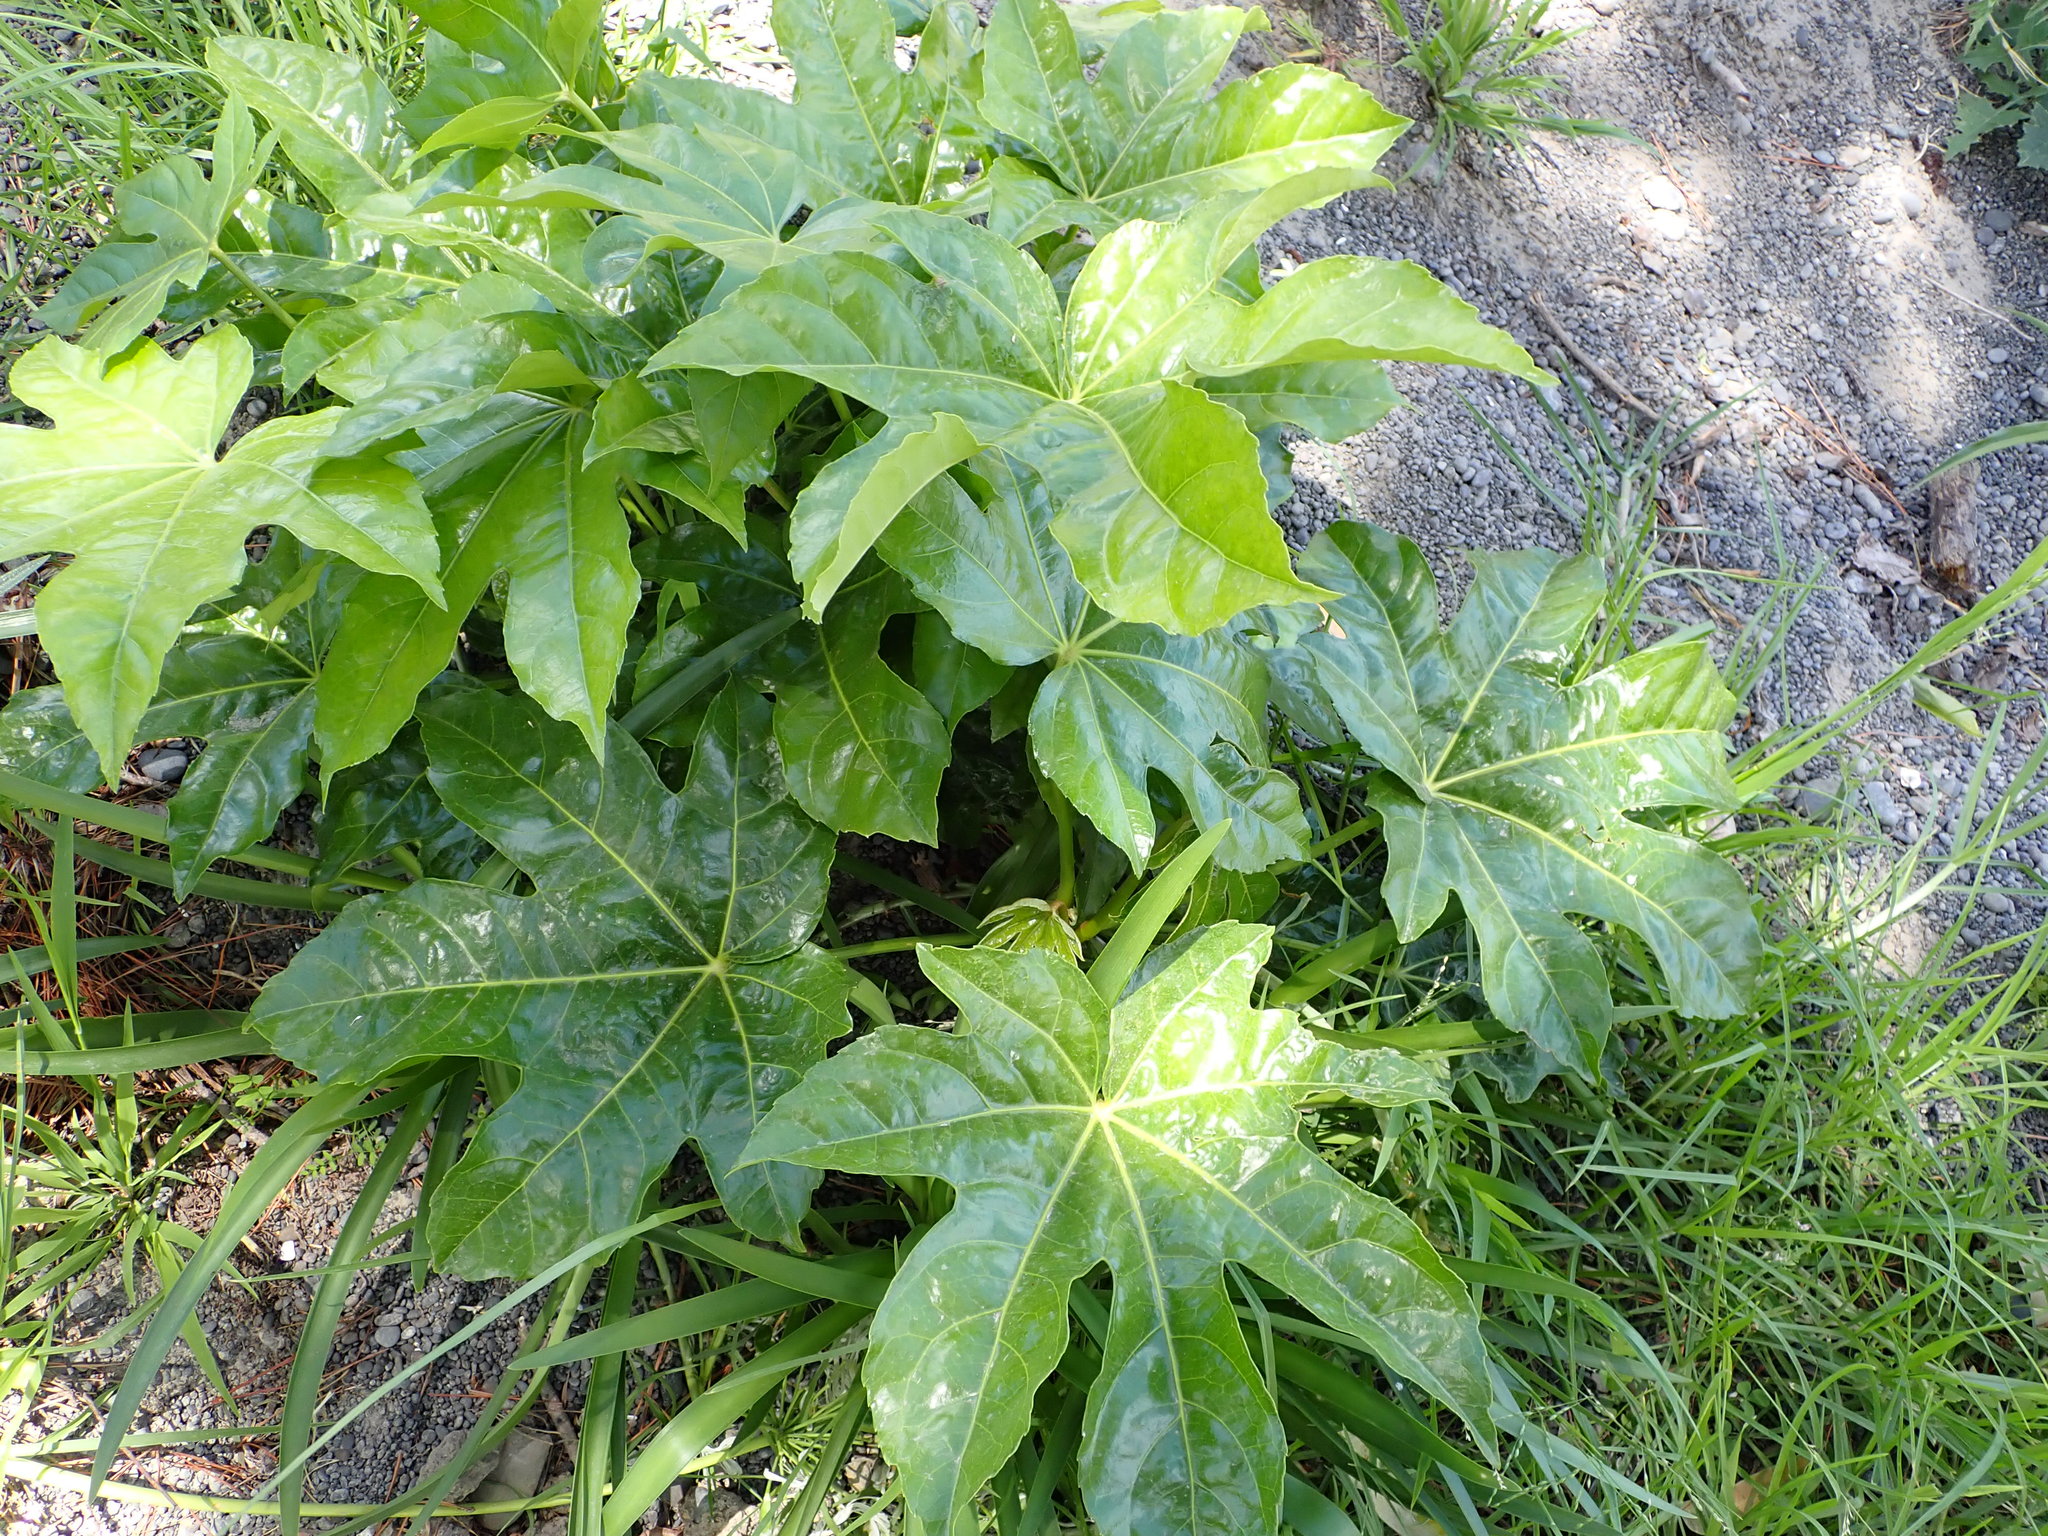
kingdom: Plantae
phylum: Tracheophyta
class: Magnoliopsida
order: Apiales
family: Araliaceae
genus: Fatsia
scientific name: Fatsia japonica
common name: Fatsia
